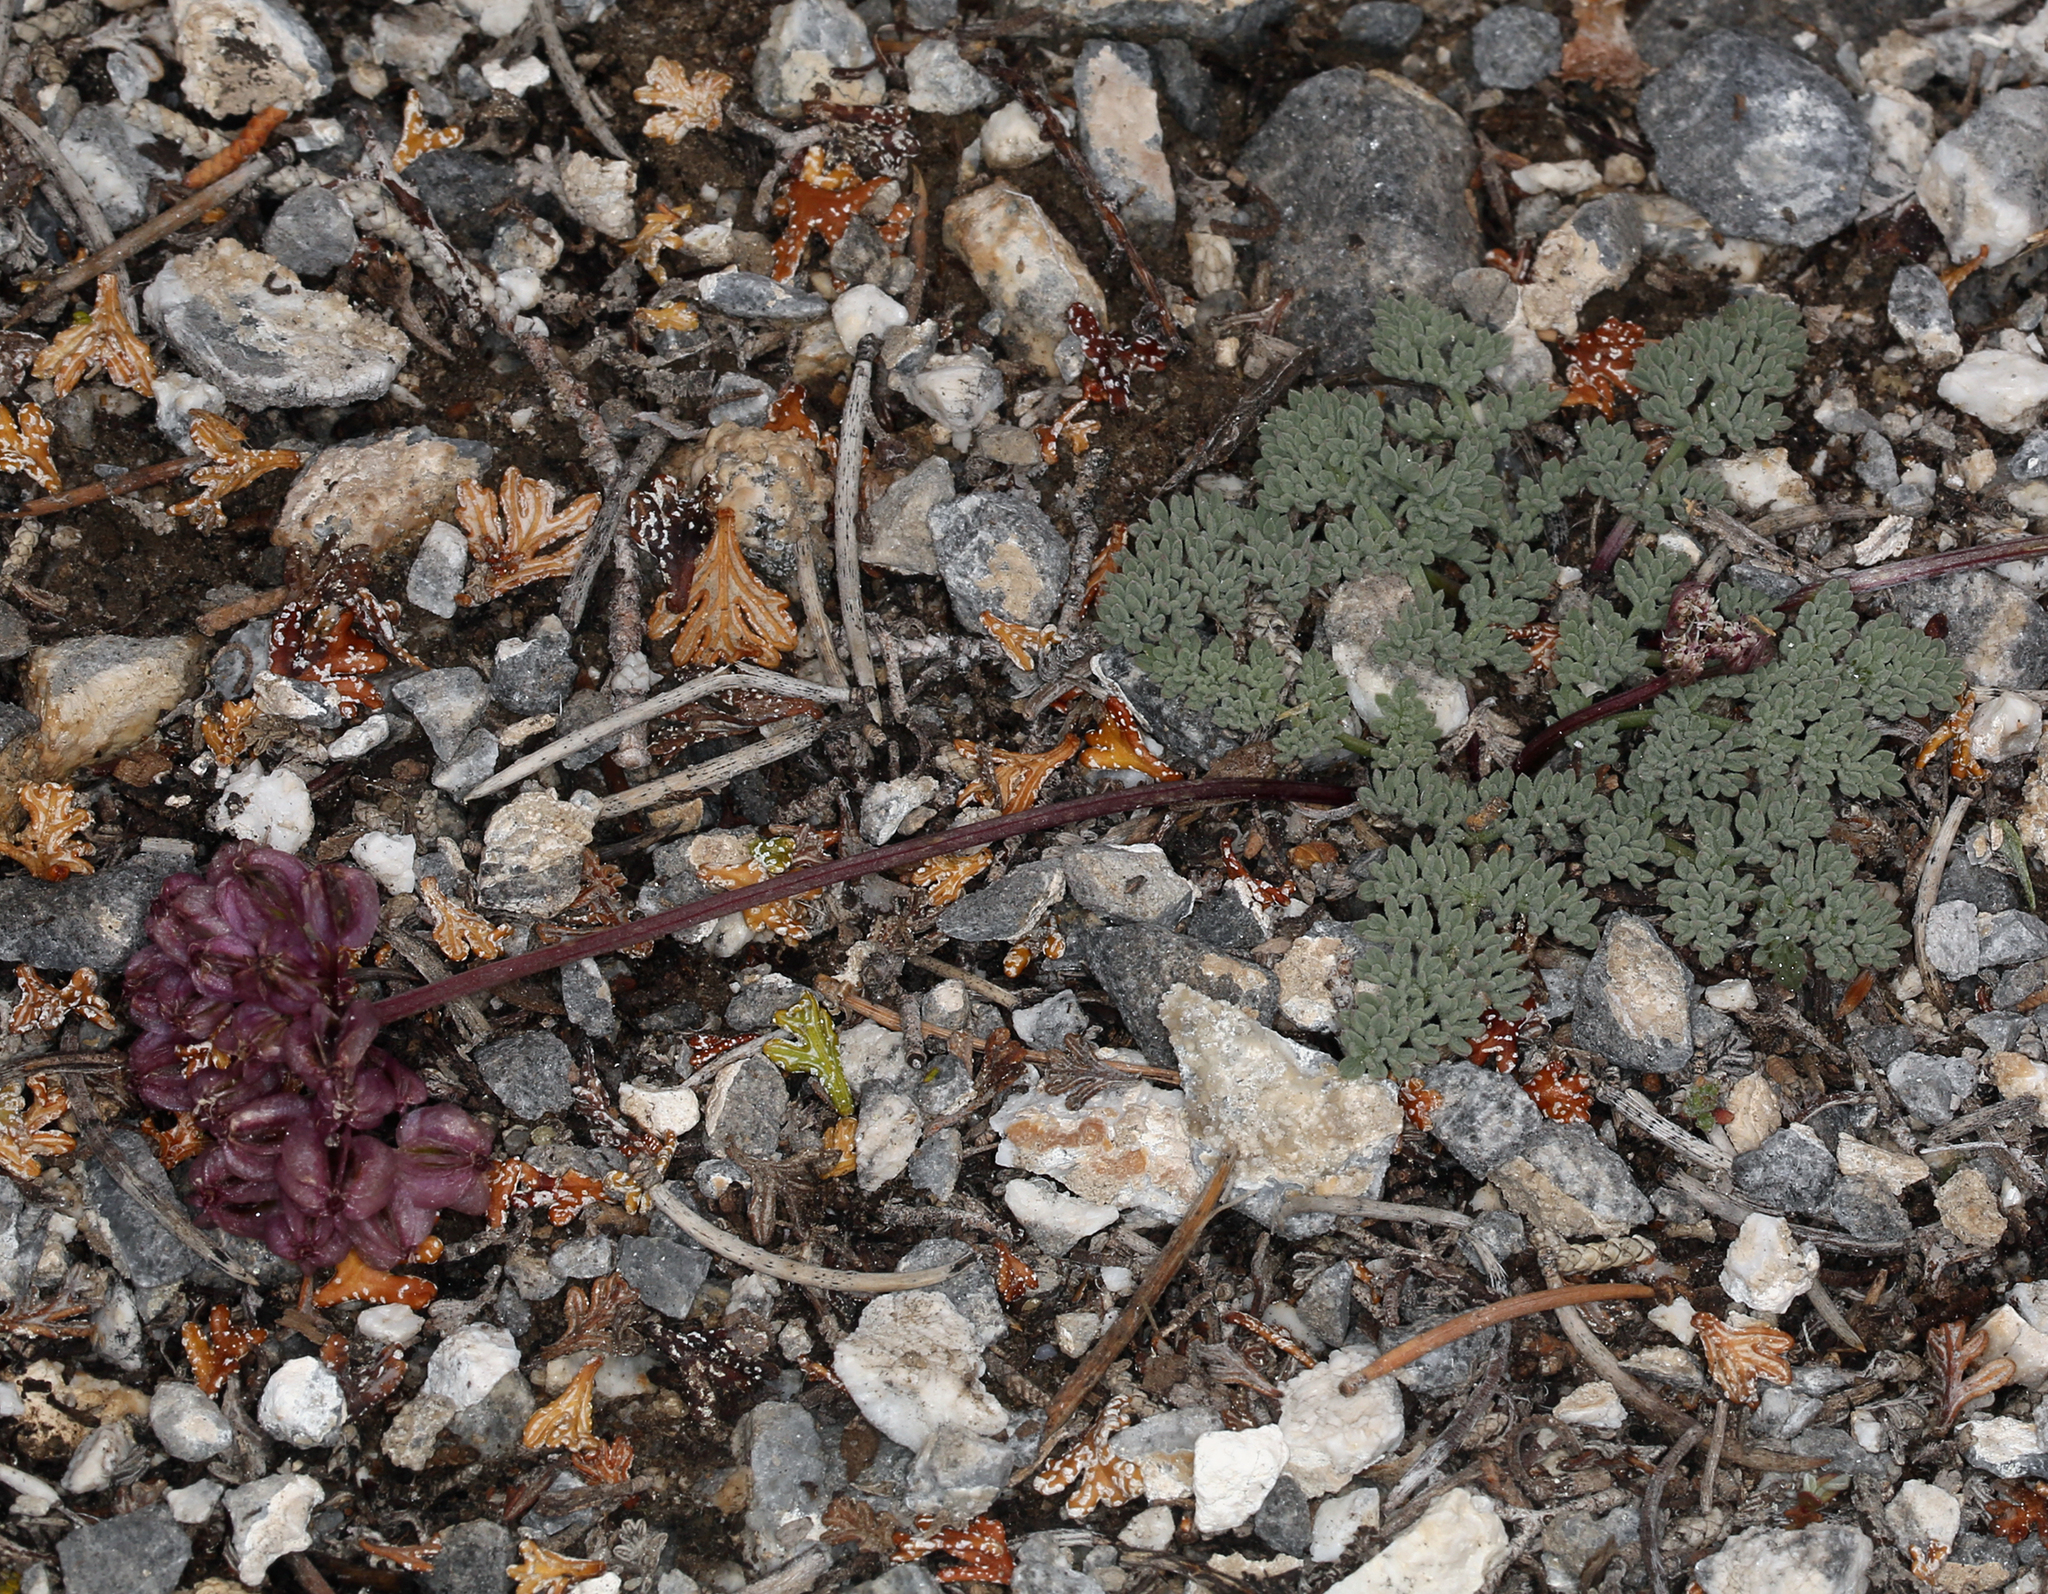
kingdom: Plantae
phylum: Tracheophyta
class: Magnoliopsida
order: Apiales
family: Apiaceae
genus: Aulospermum
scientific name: Aulospermum aboriginum
